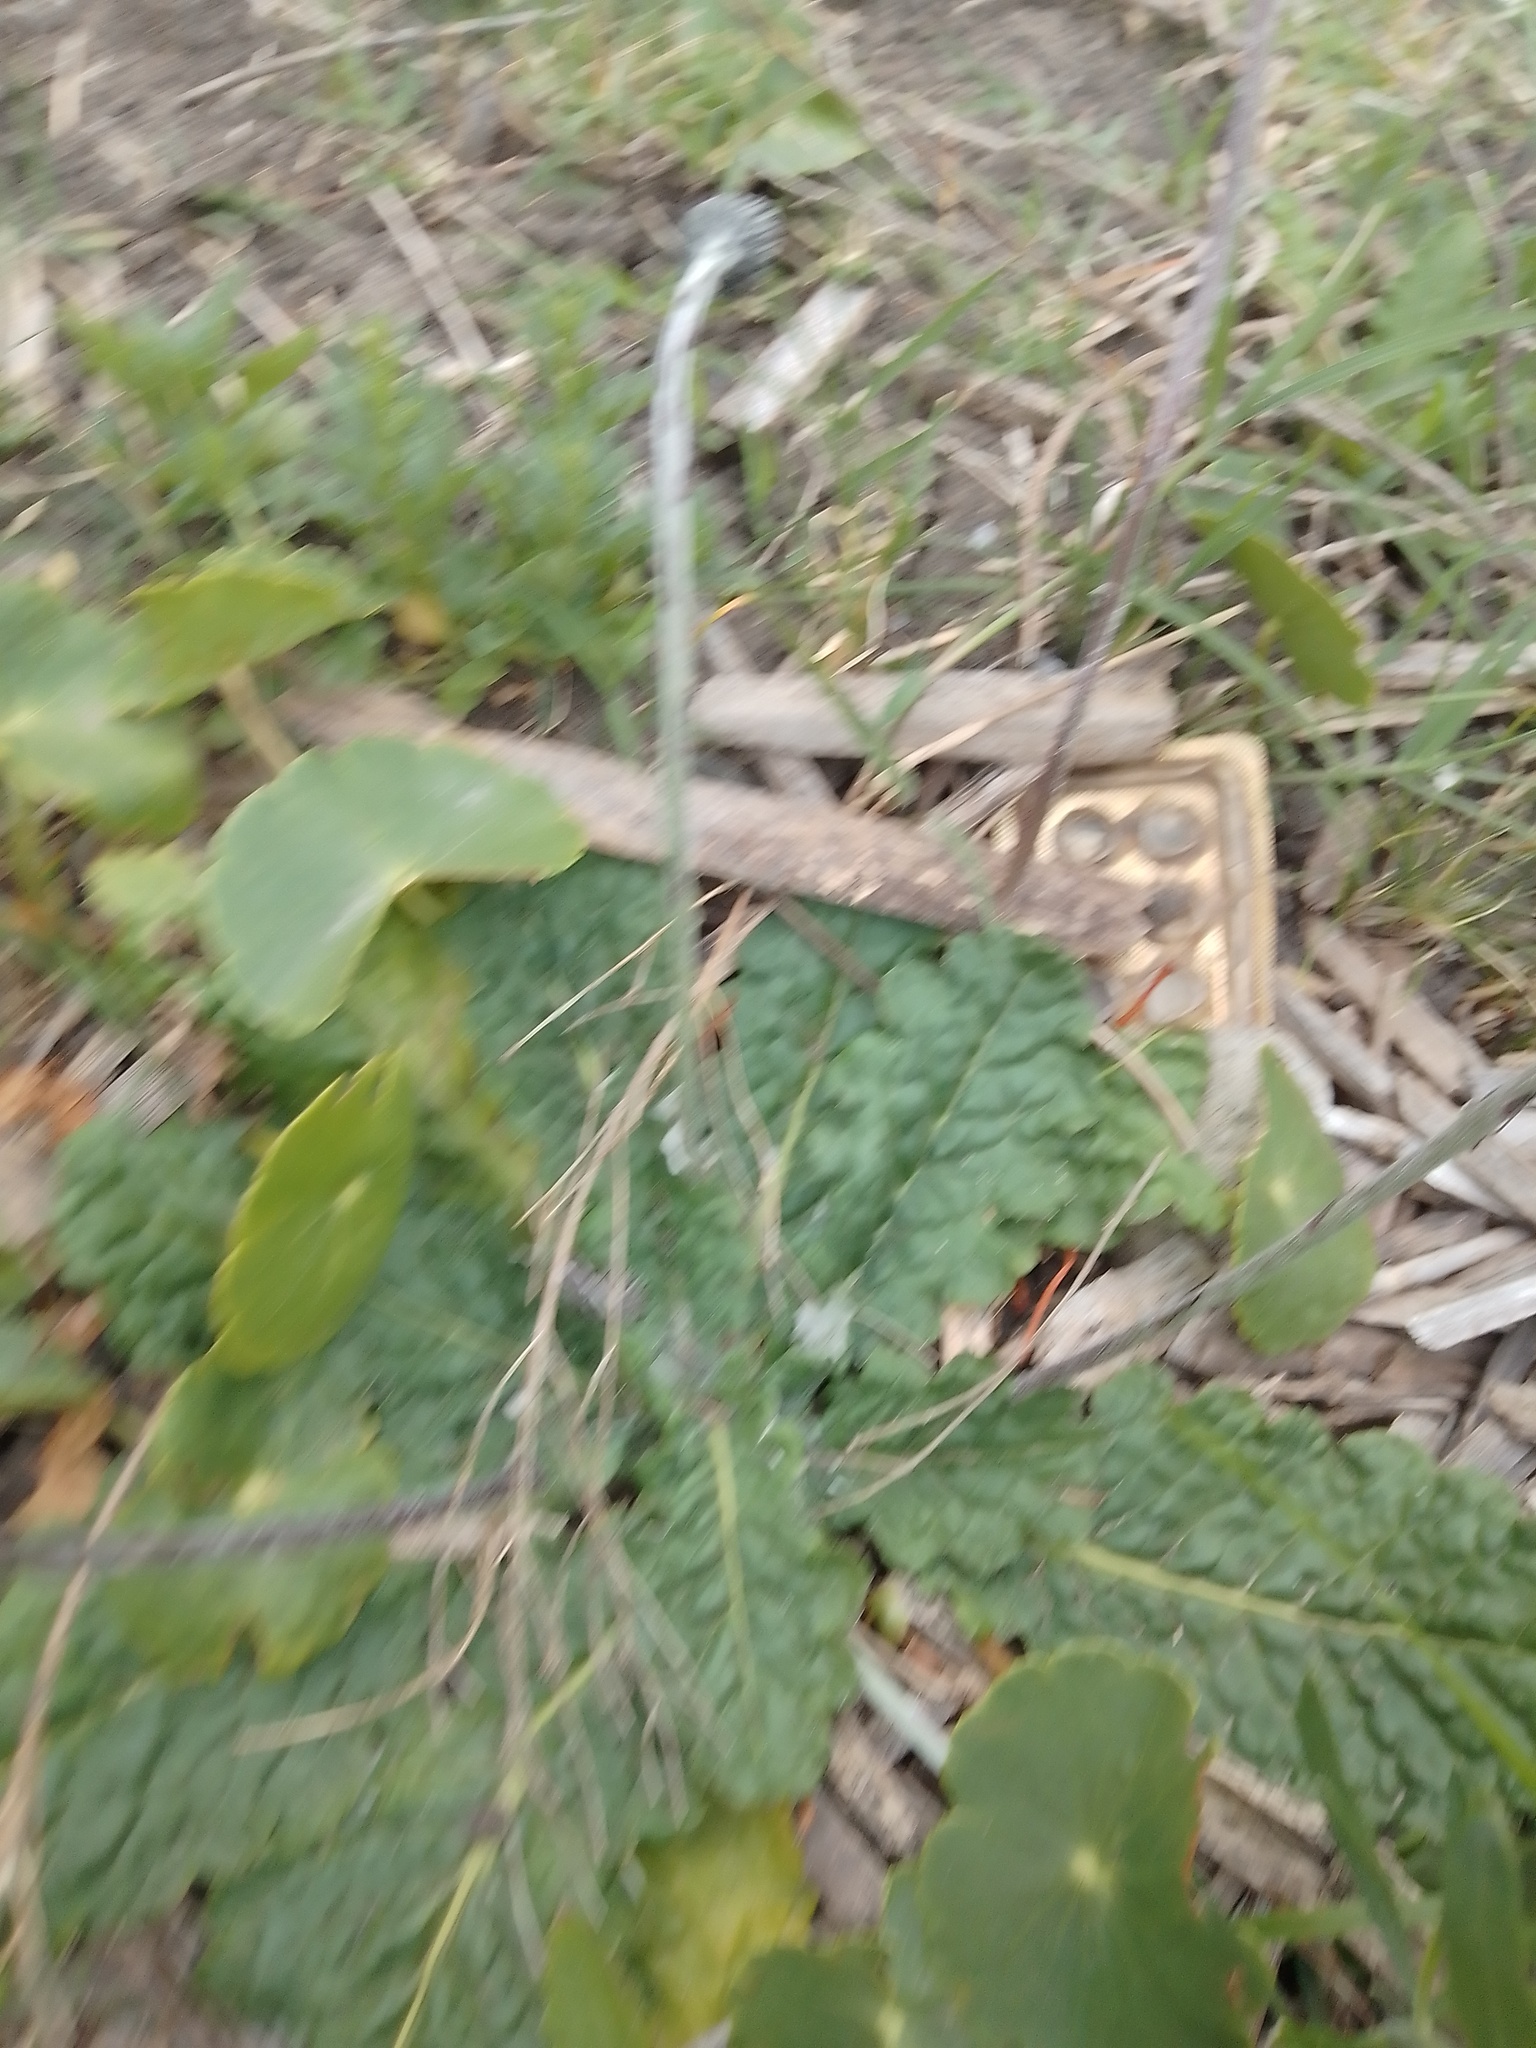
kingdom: Plantae
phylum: Tracheophyta
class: Magnoliopsida
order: Asterales
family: Asteraceae
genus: Chaptalia
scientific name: Chaptalia nutans
